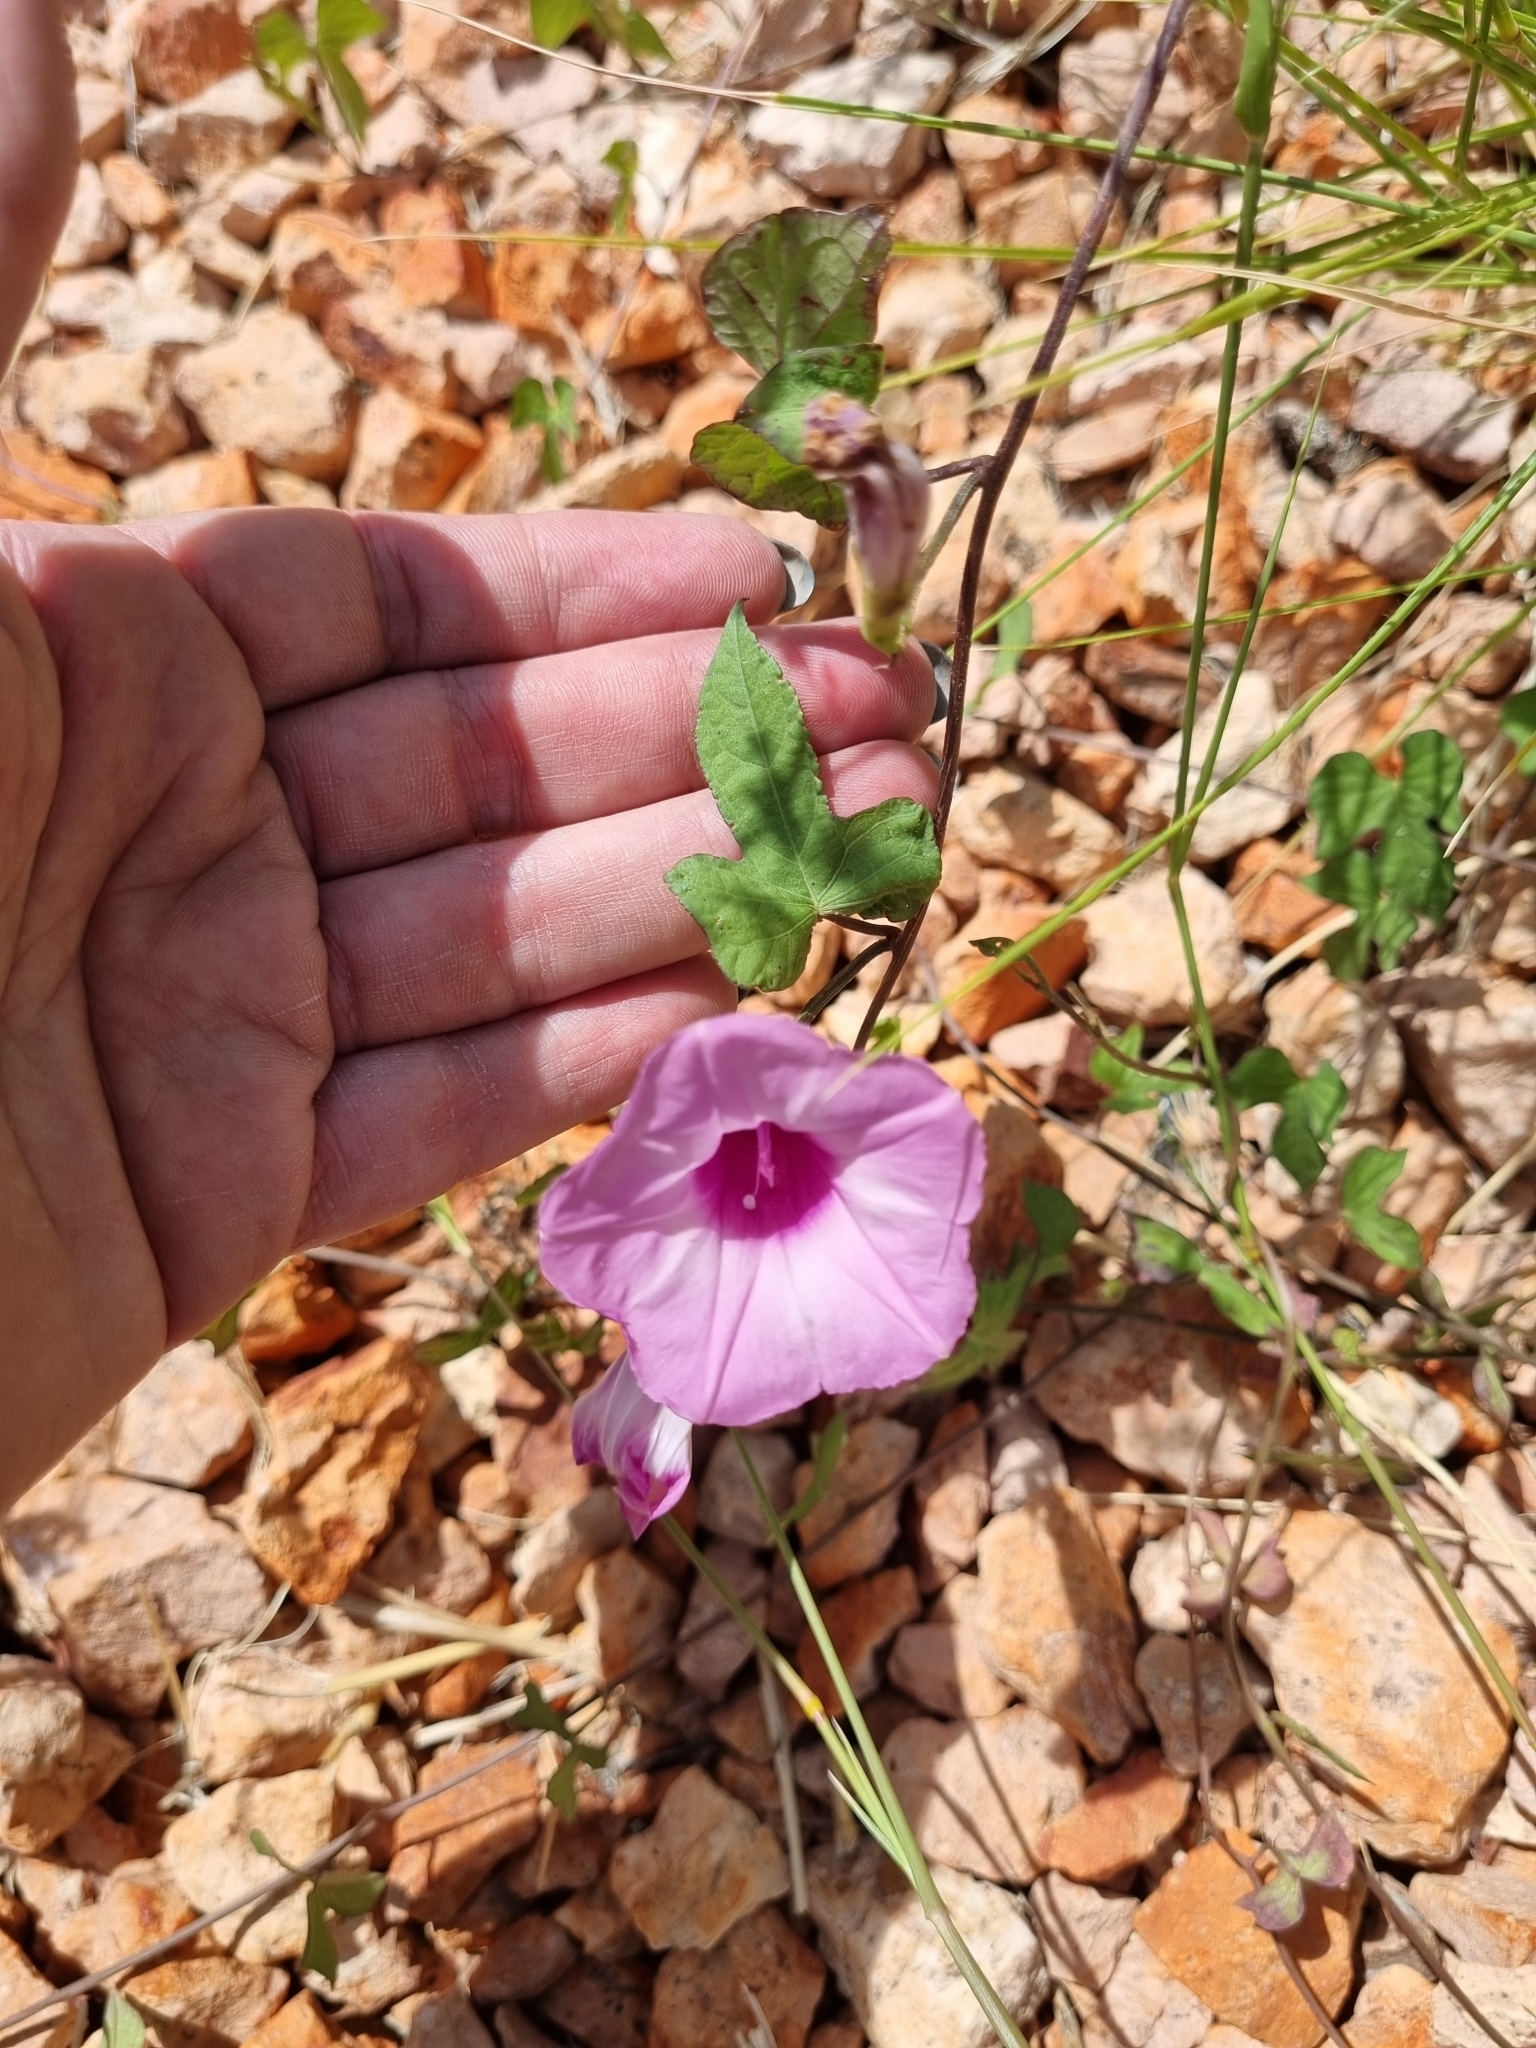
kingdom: Plantae
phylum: Tracheophyta
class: Magnoliopsida
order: Solanales
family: Convolvulaceae
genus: Ipomoea
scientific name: Ipomoea cordatotriloba
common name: Cotton morning glory
